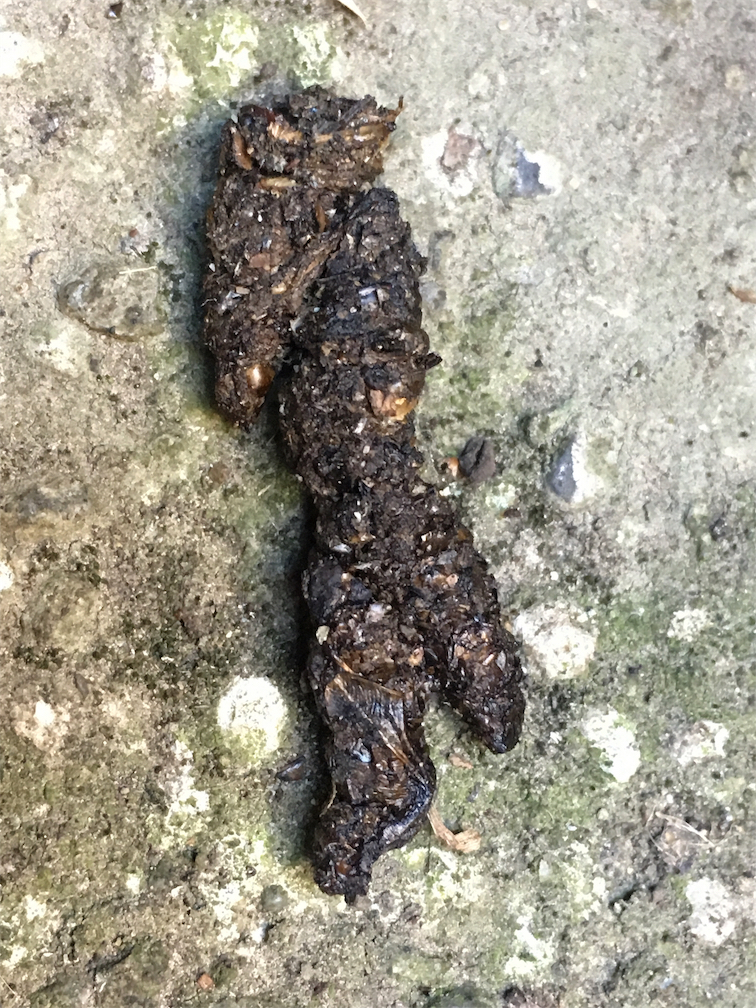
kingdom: Animalia
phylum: Chordata
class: Mammalia
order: Erinaceomorpha
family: Erinaceidae
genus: Erinaceus
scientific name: Erinaceus europaeus
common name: West european hedgehog
